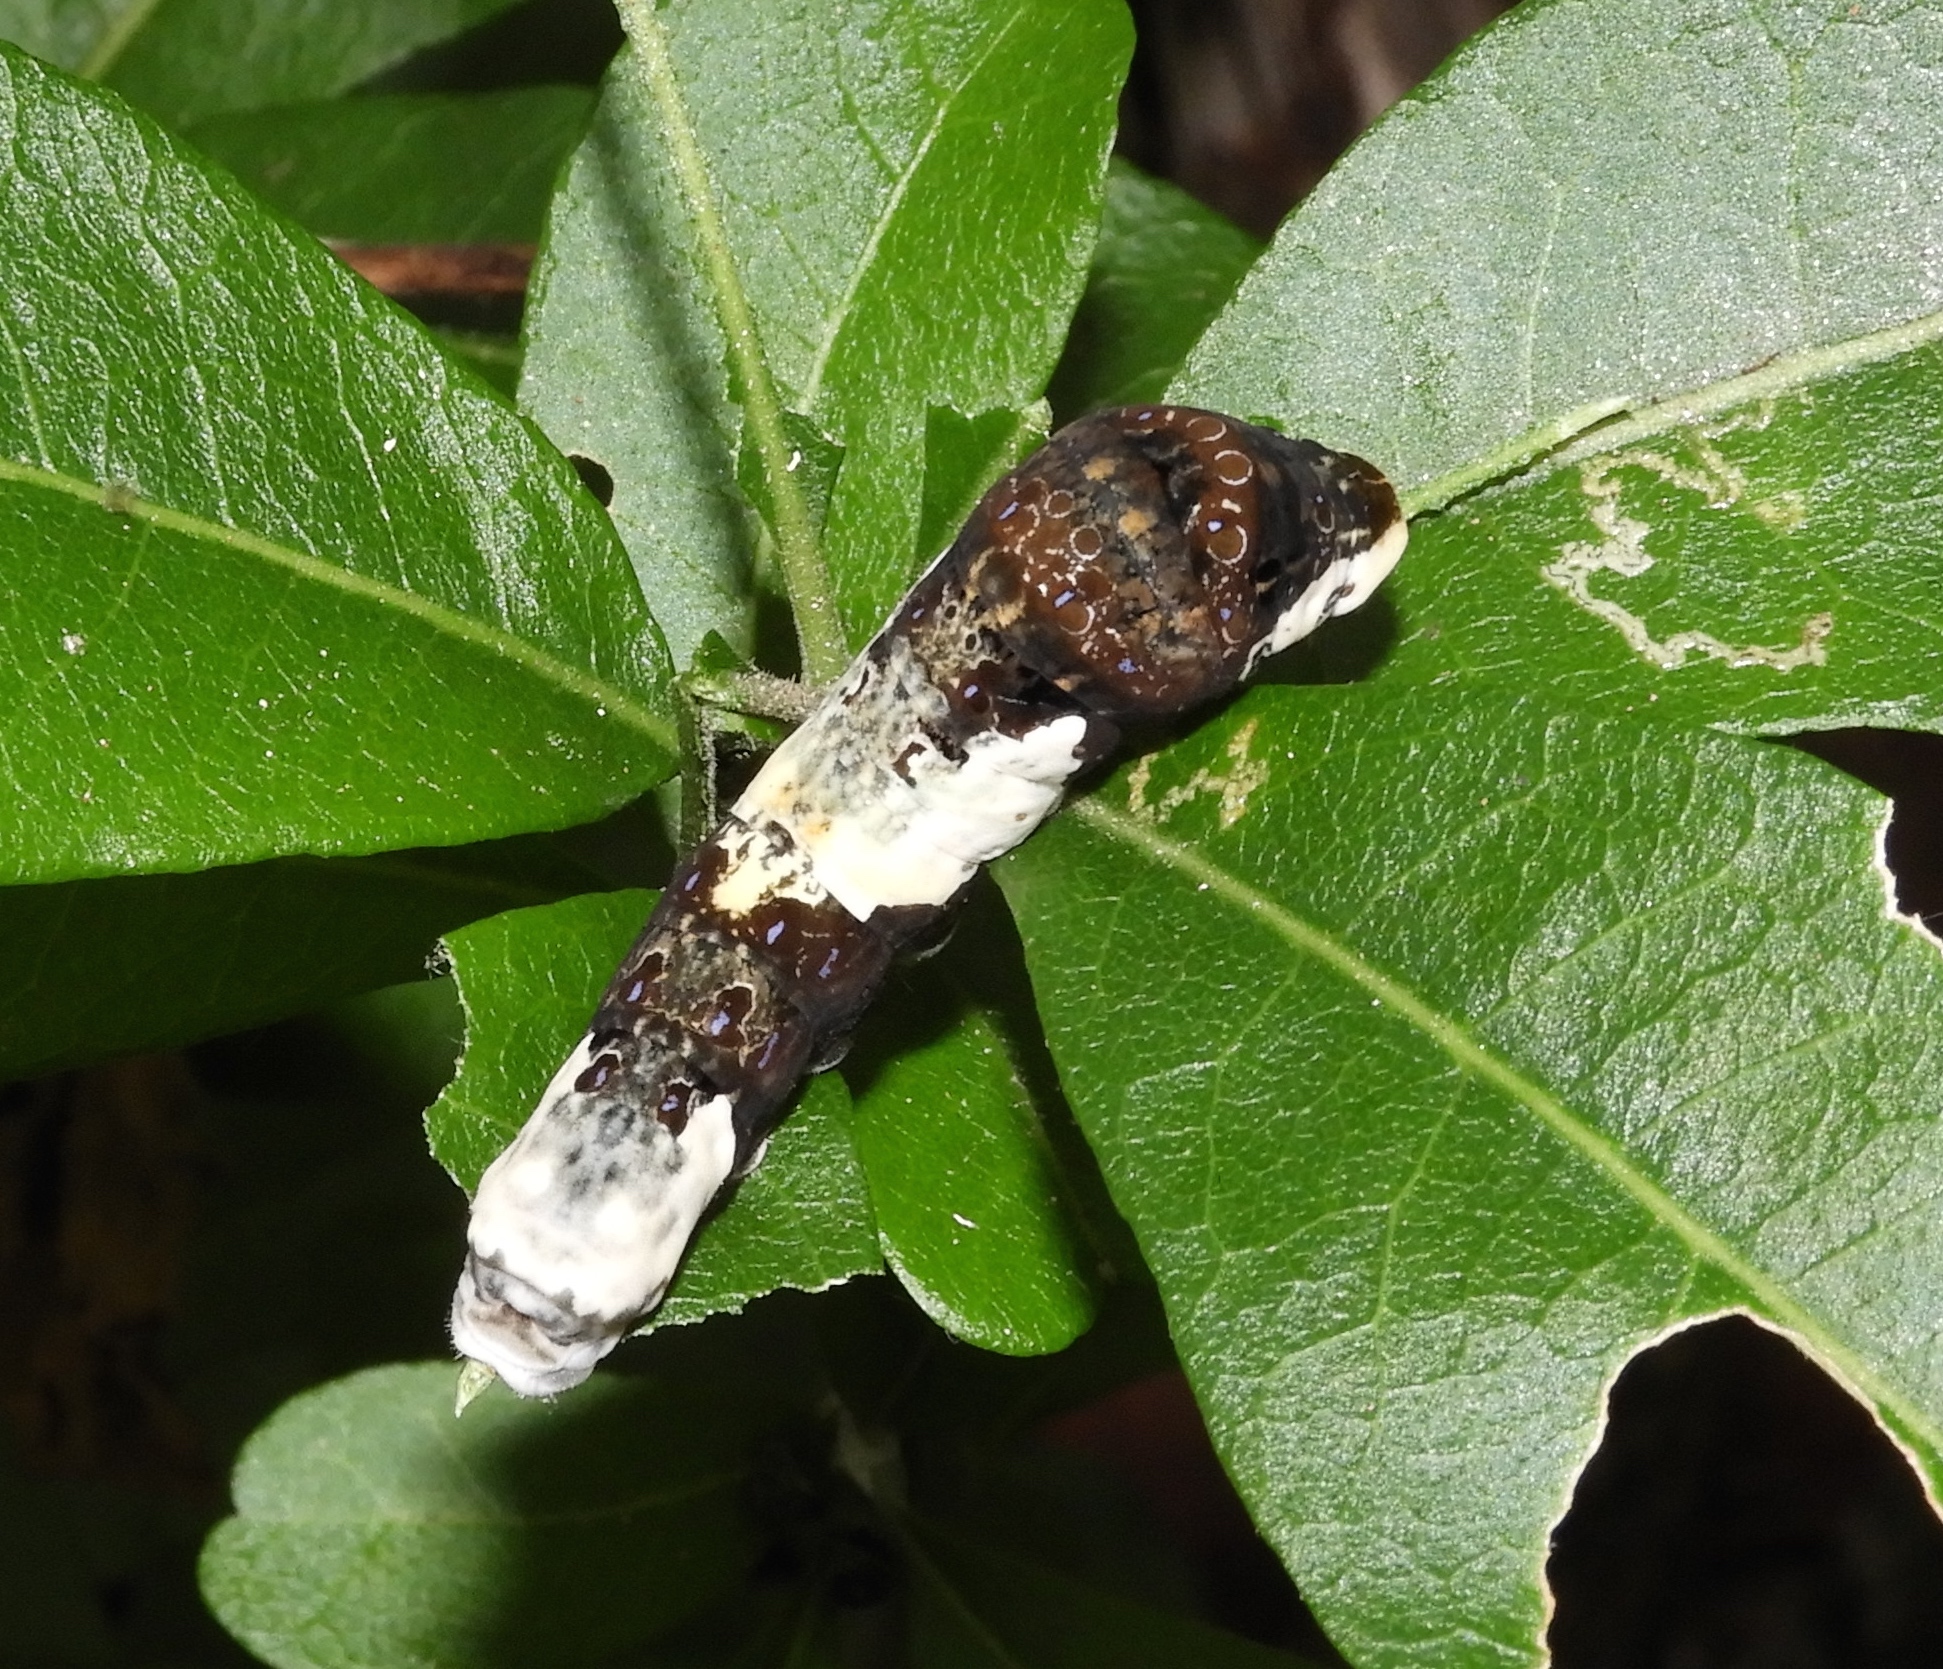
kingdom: Animalia
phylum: Arthropoda
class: Insecta
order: Lepidoptera
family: Papilionidae
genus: Heraclides
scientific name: Heraclides
